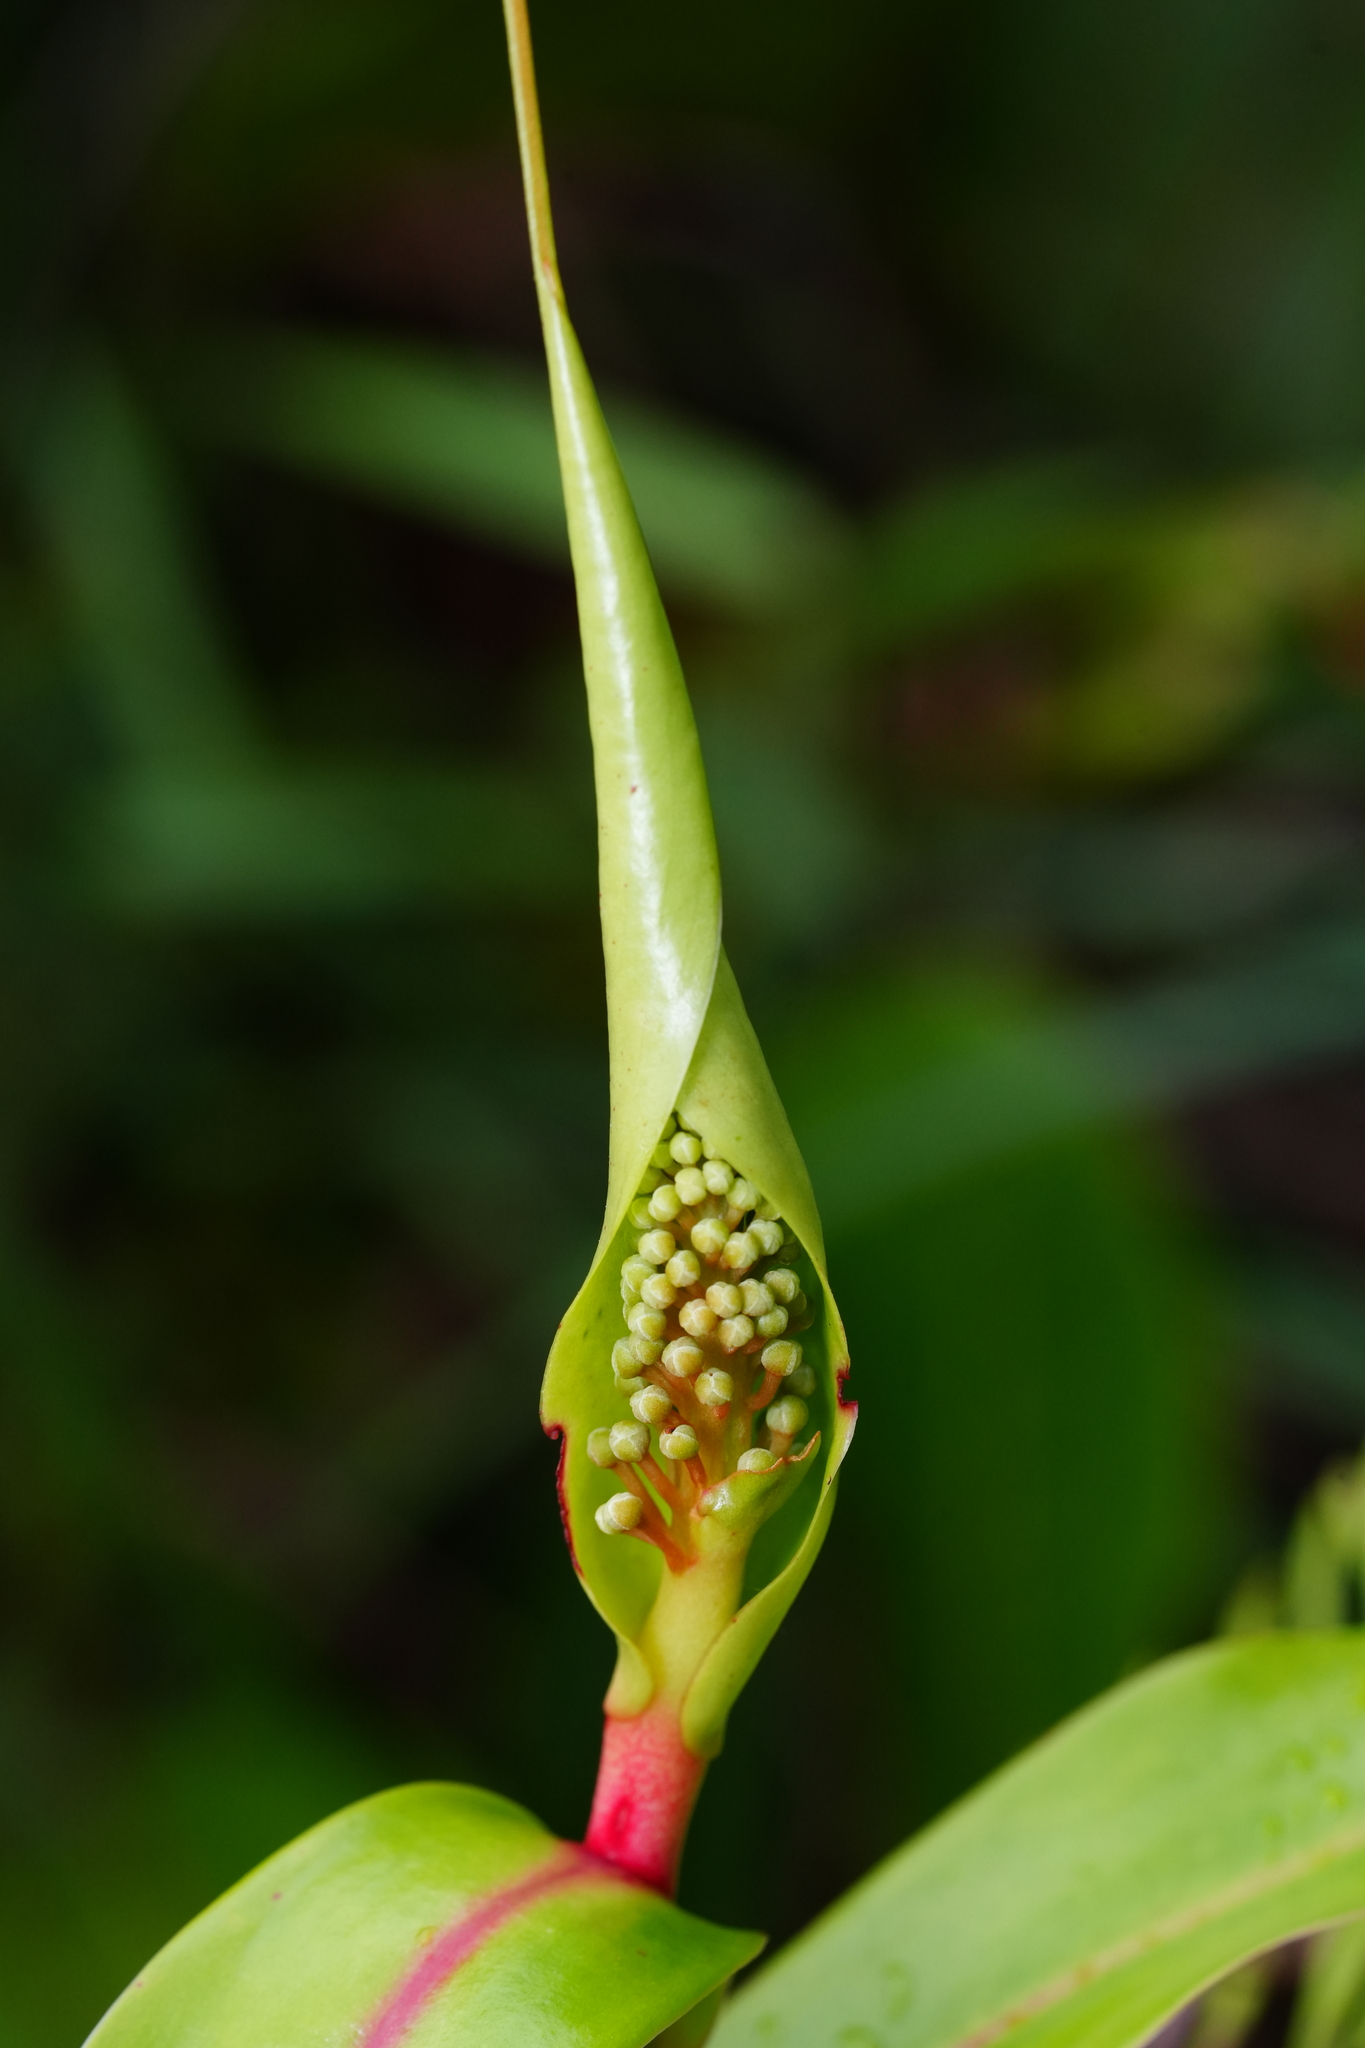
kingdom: Plantae
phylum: Tracheophyta
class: Magnoliopsida
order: Caryophyllales
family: Nepenthaceae
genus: Nepenthes
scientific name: Nepenthes gracilis
